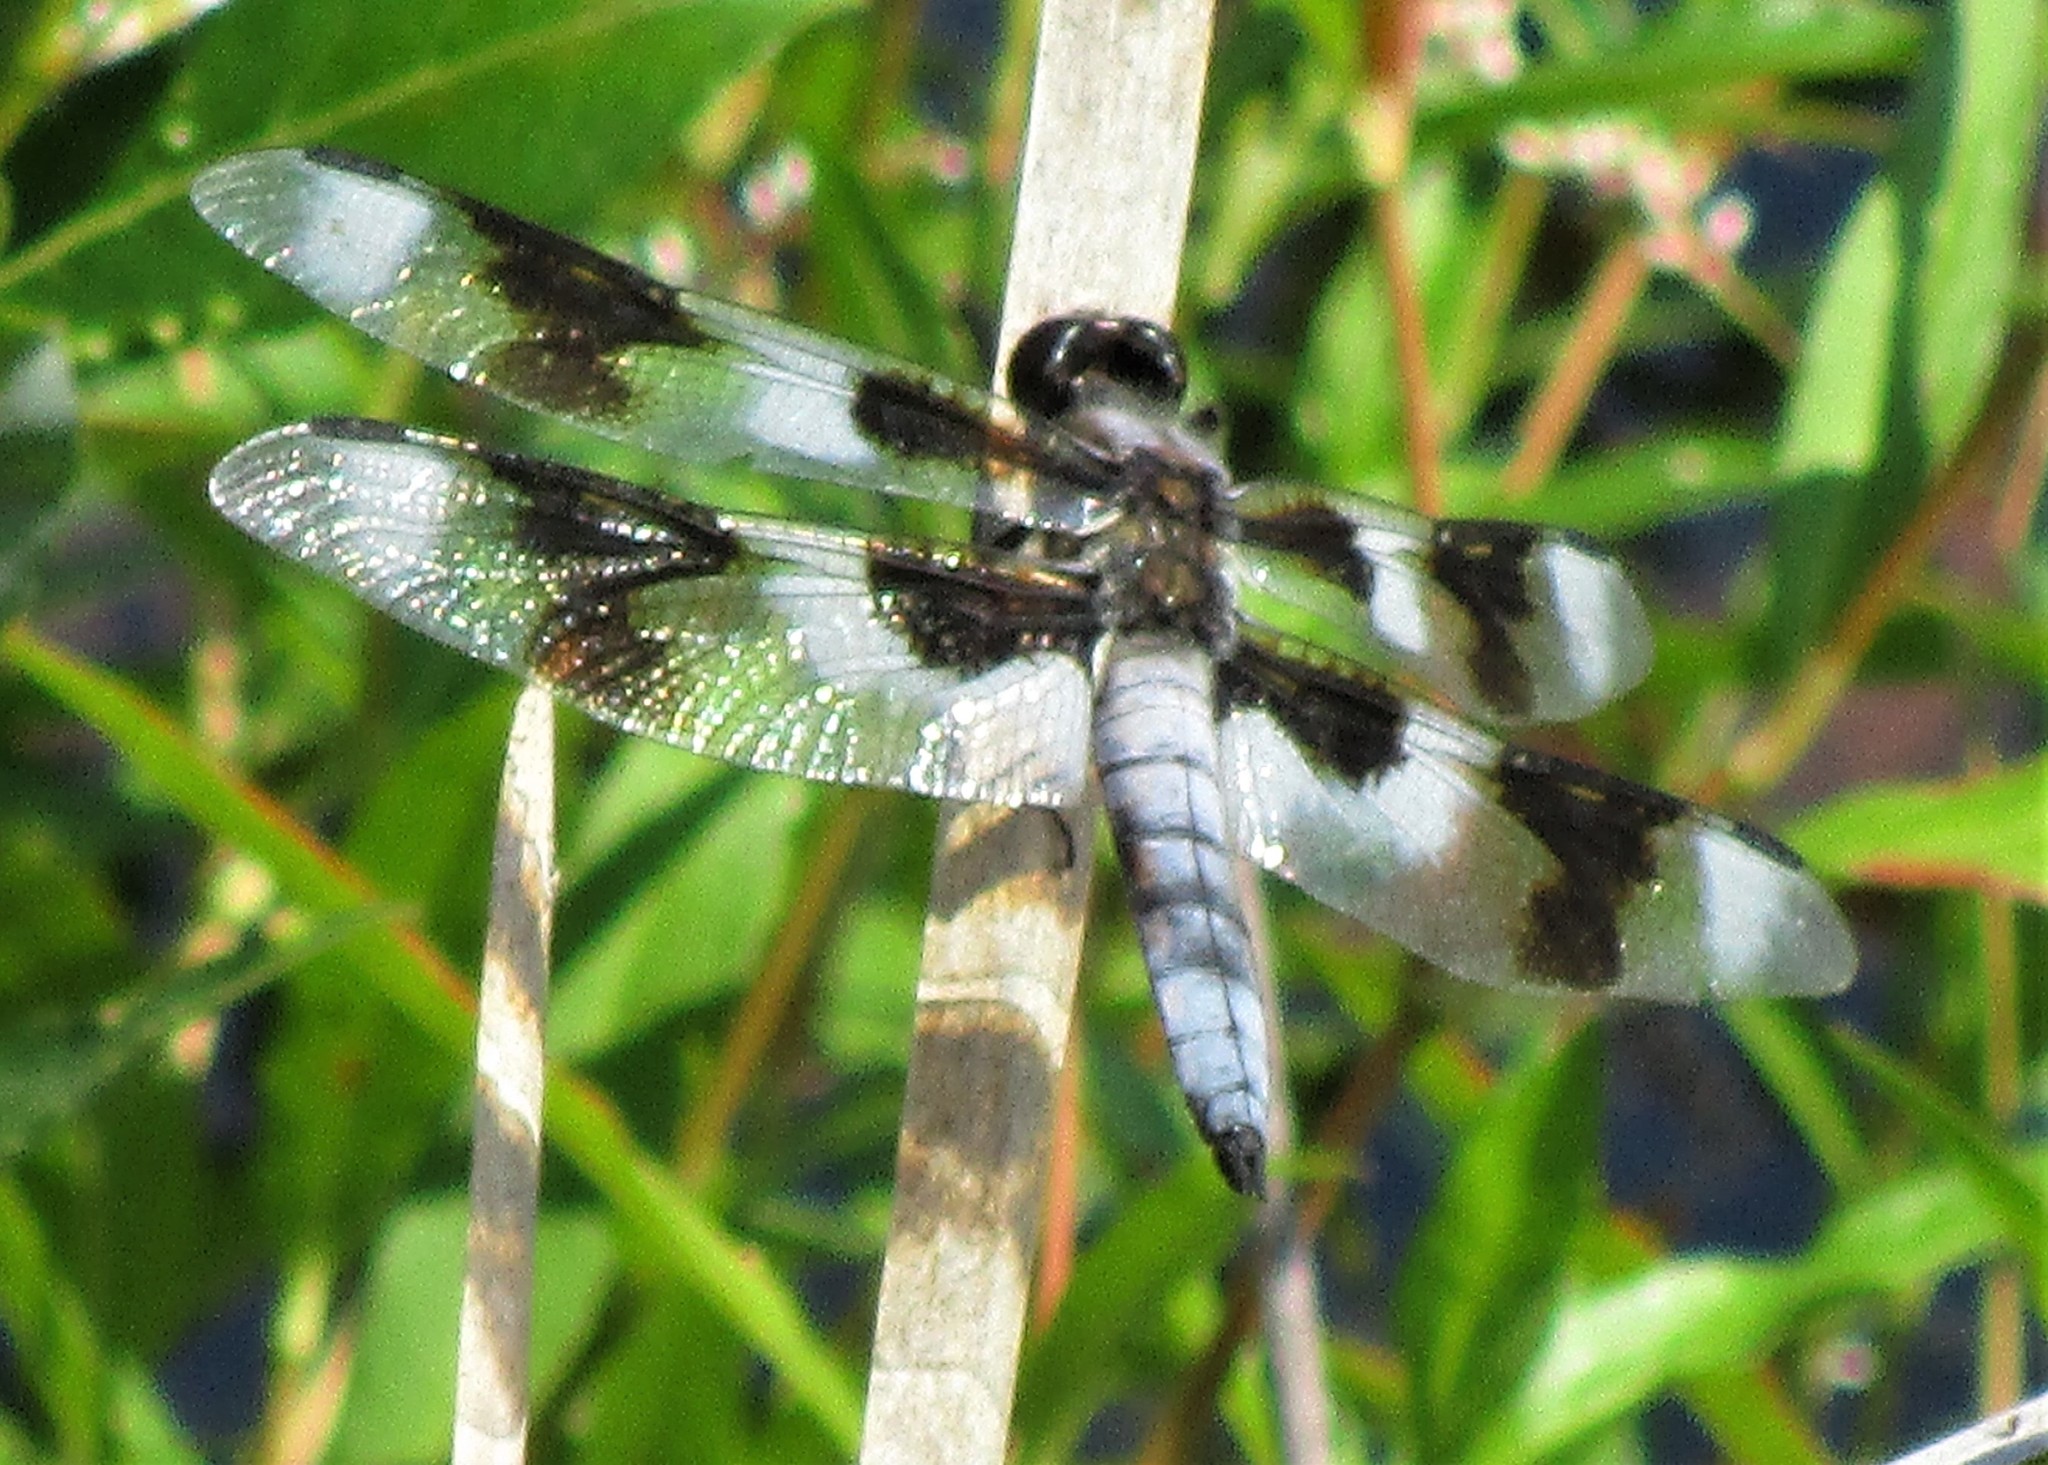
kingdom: Animalia
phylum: Arthropoda
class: Insecta
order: Odonata
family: Libellulidae
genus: Libellula
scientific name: Libellula forensis
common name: Eight-spotted skimmer
